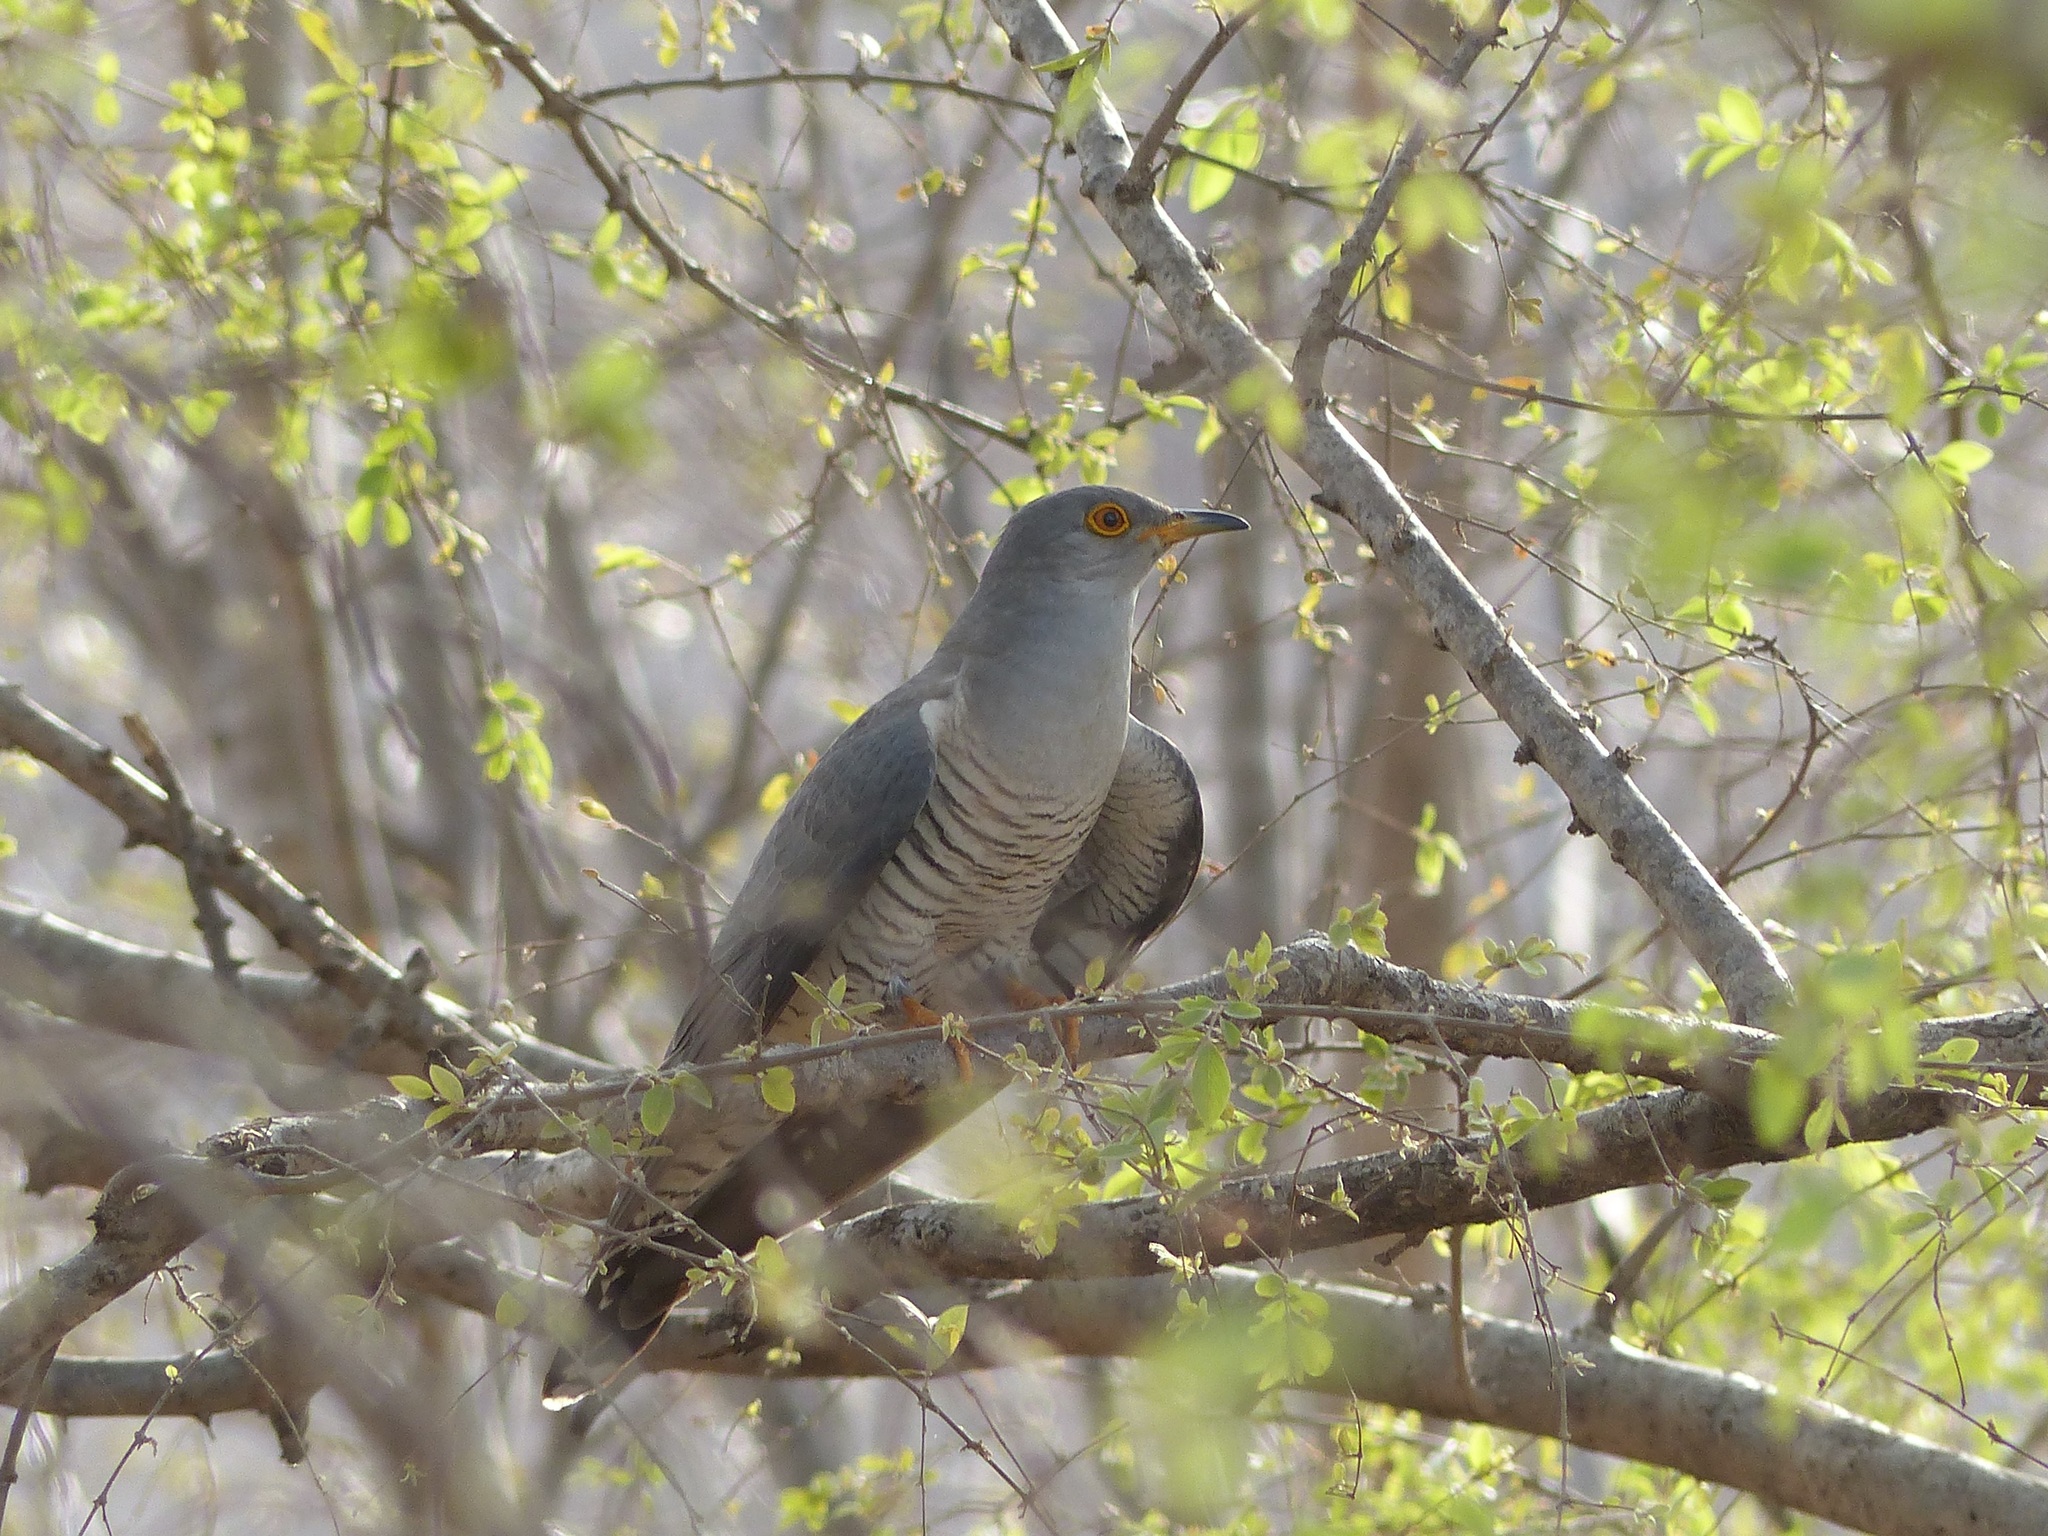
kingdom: Animalia
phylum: Chordata
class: Aves
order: Cuculiformes
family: Cuculidae
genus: Cuculus
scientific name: Cuculus canorus
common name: Common cuckoo
